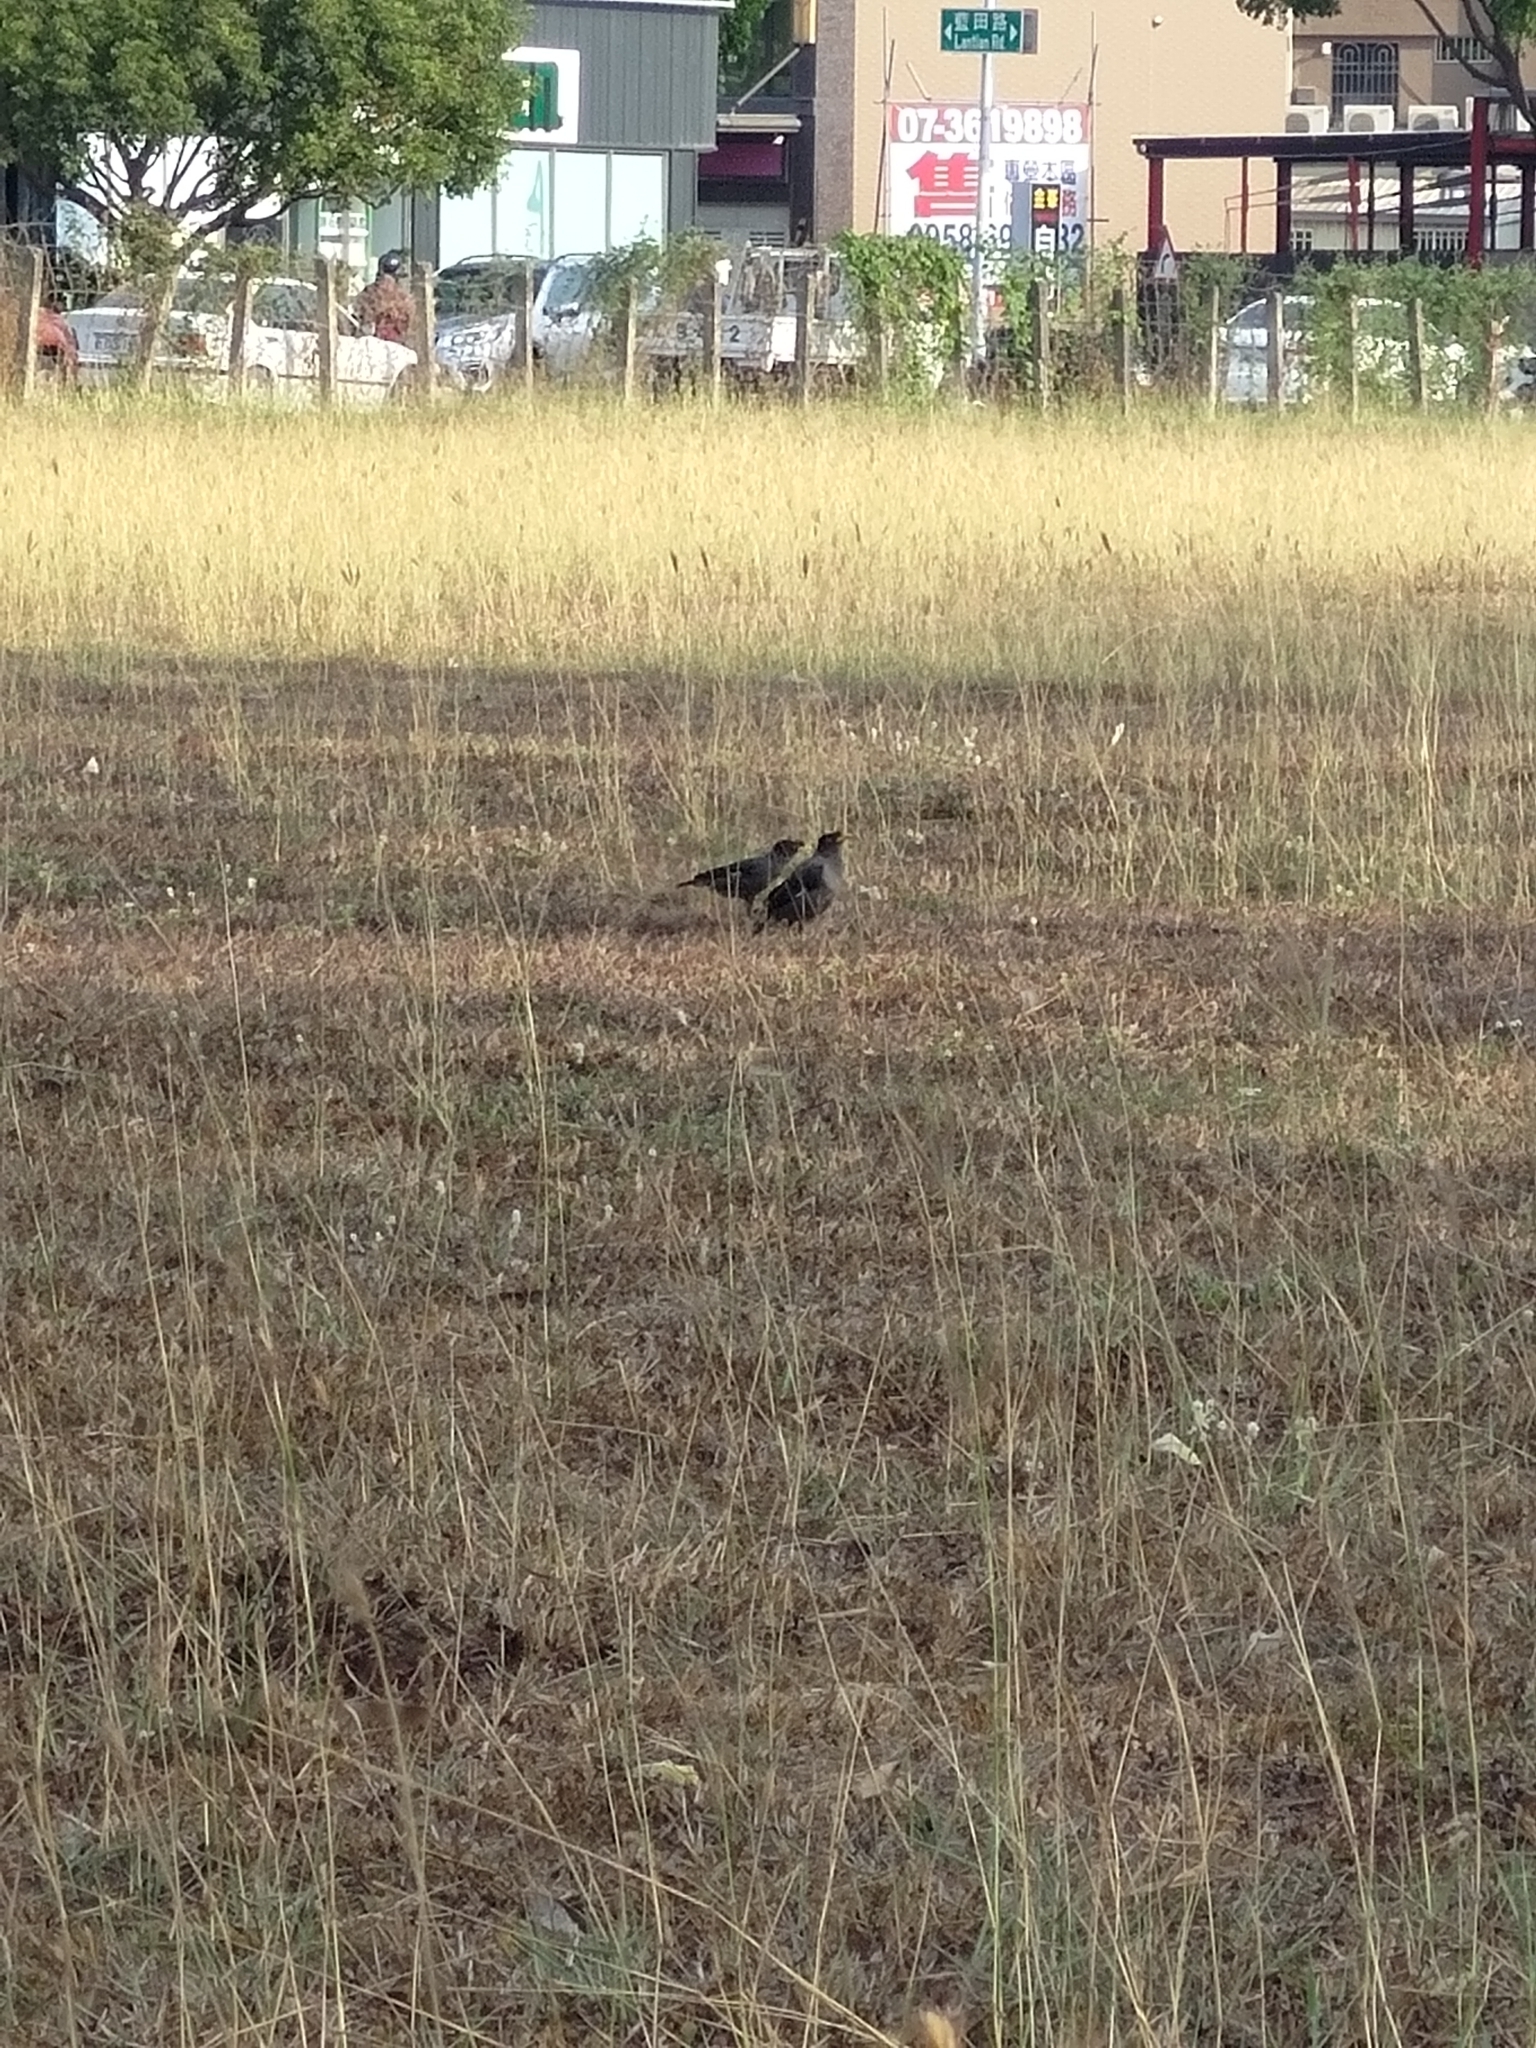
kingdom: Animalia
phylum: Chordata
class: Aves
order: Passeriformes
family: Sturnidae
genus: Acridotheres
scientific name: Acridotheres javanicus
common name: Javan myna
